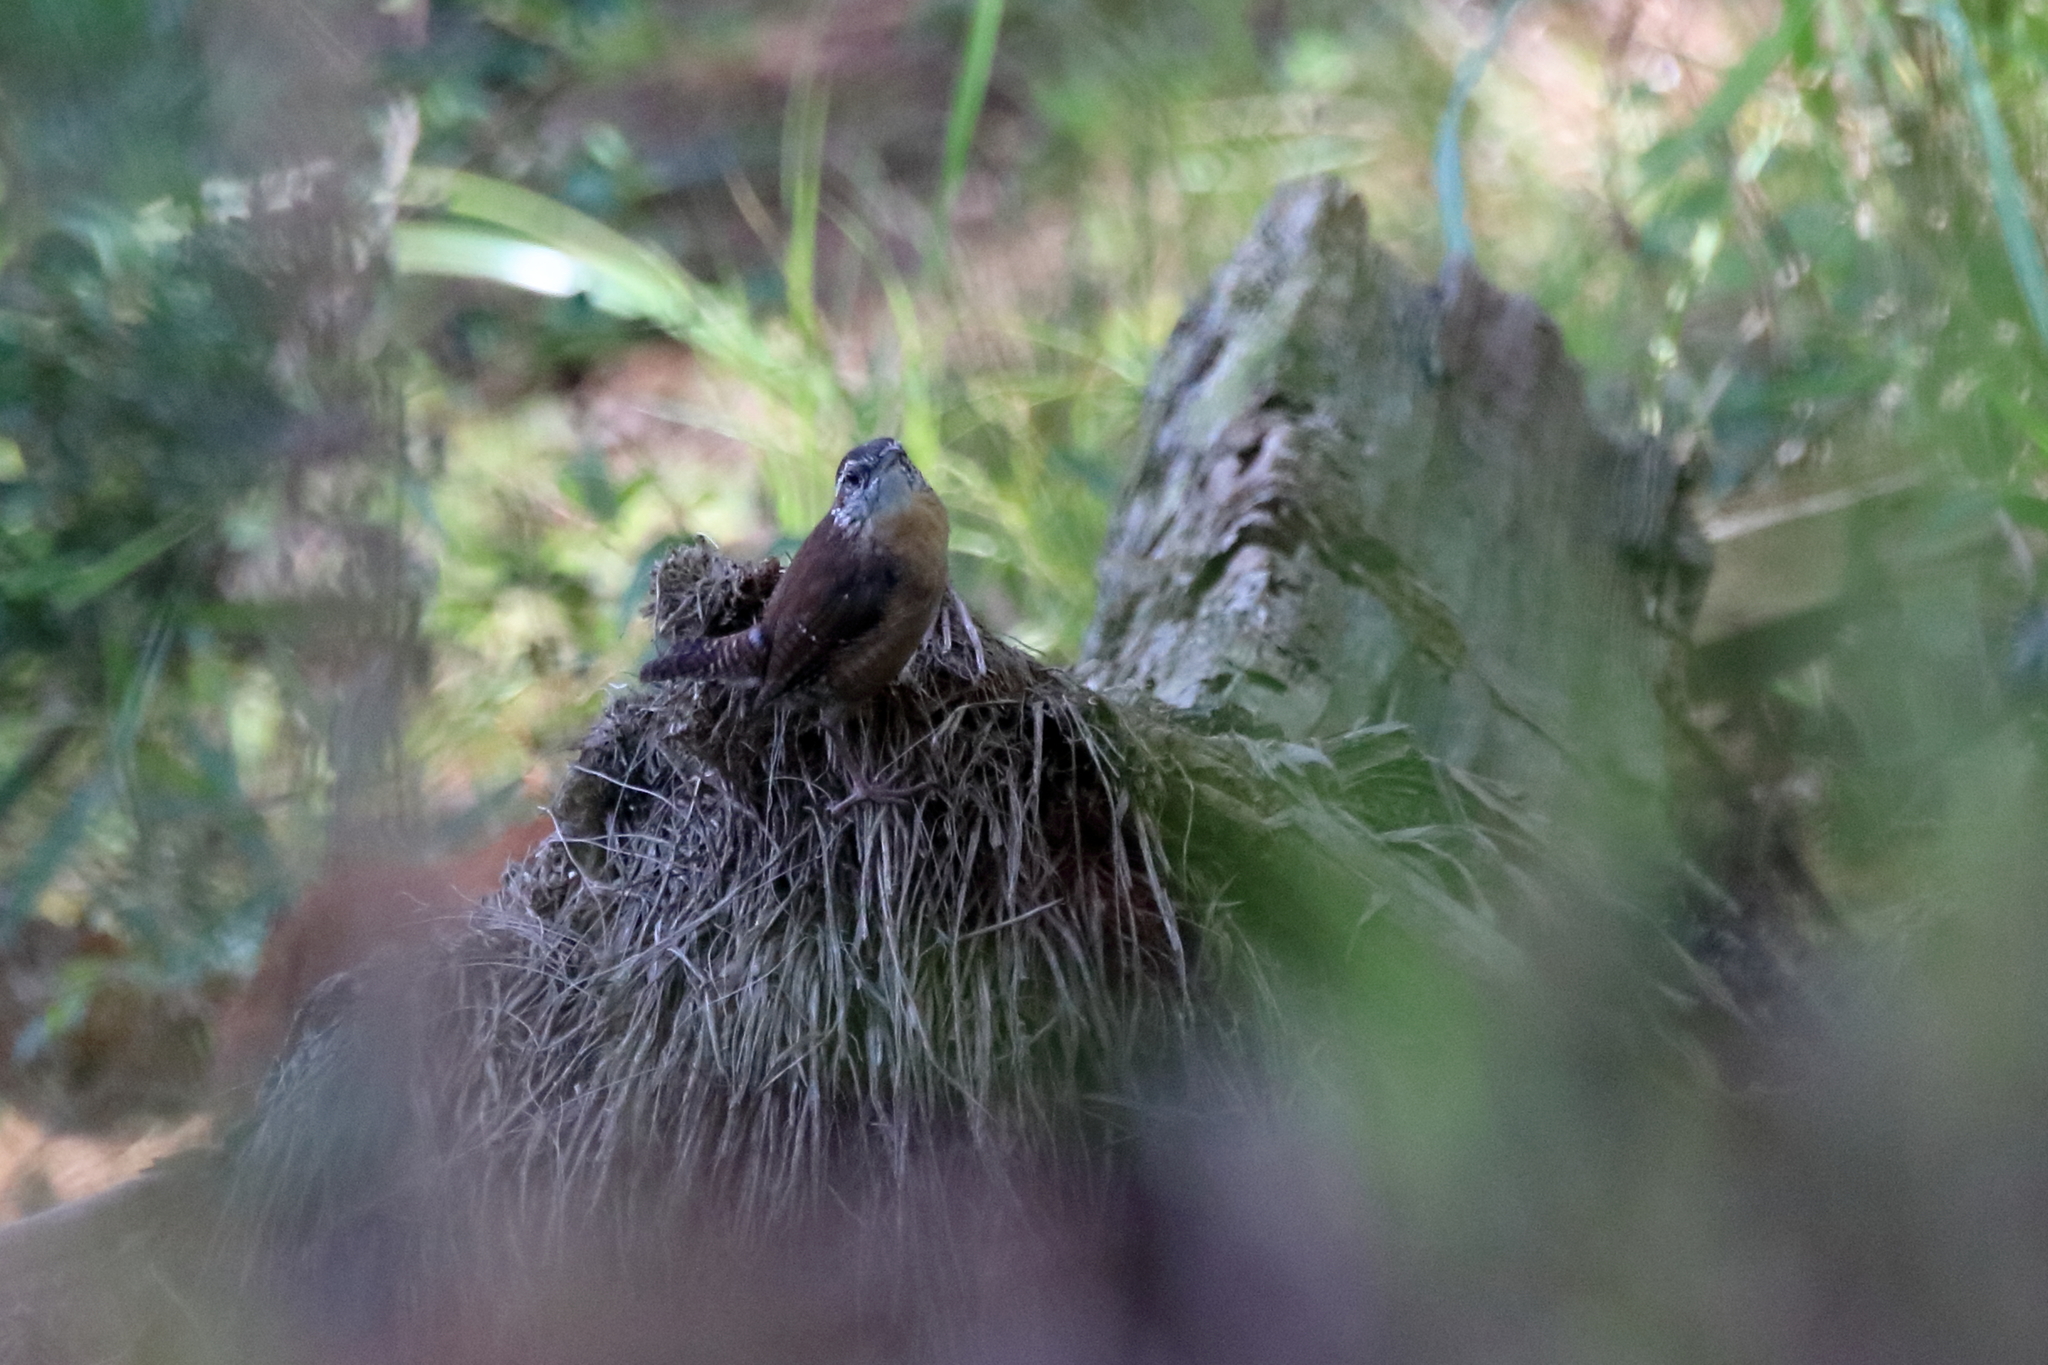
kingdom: Animalia
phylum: Chordata
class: Aves
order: Passeriformes
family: Troglodytidae
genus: Thryothorus
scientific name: Thryothorus ludovicianus
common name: Carolina wren
